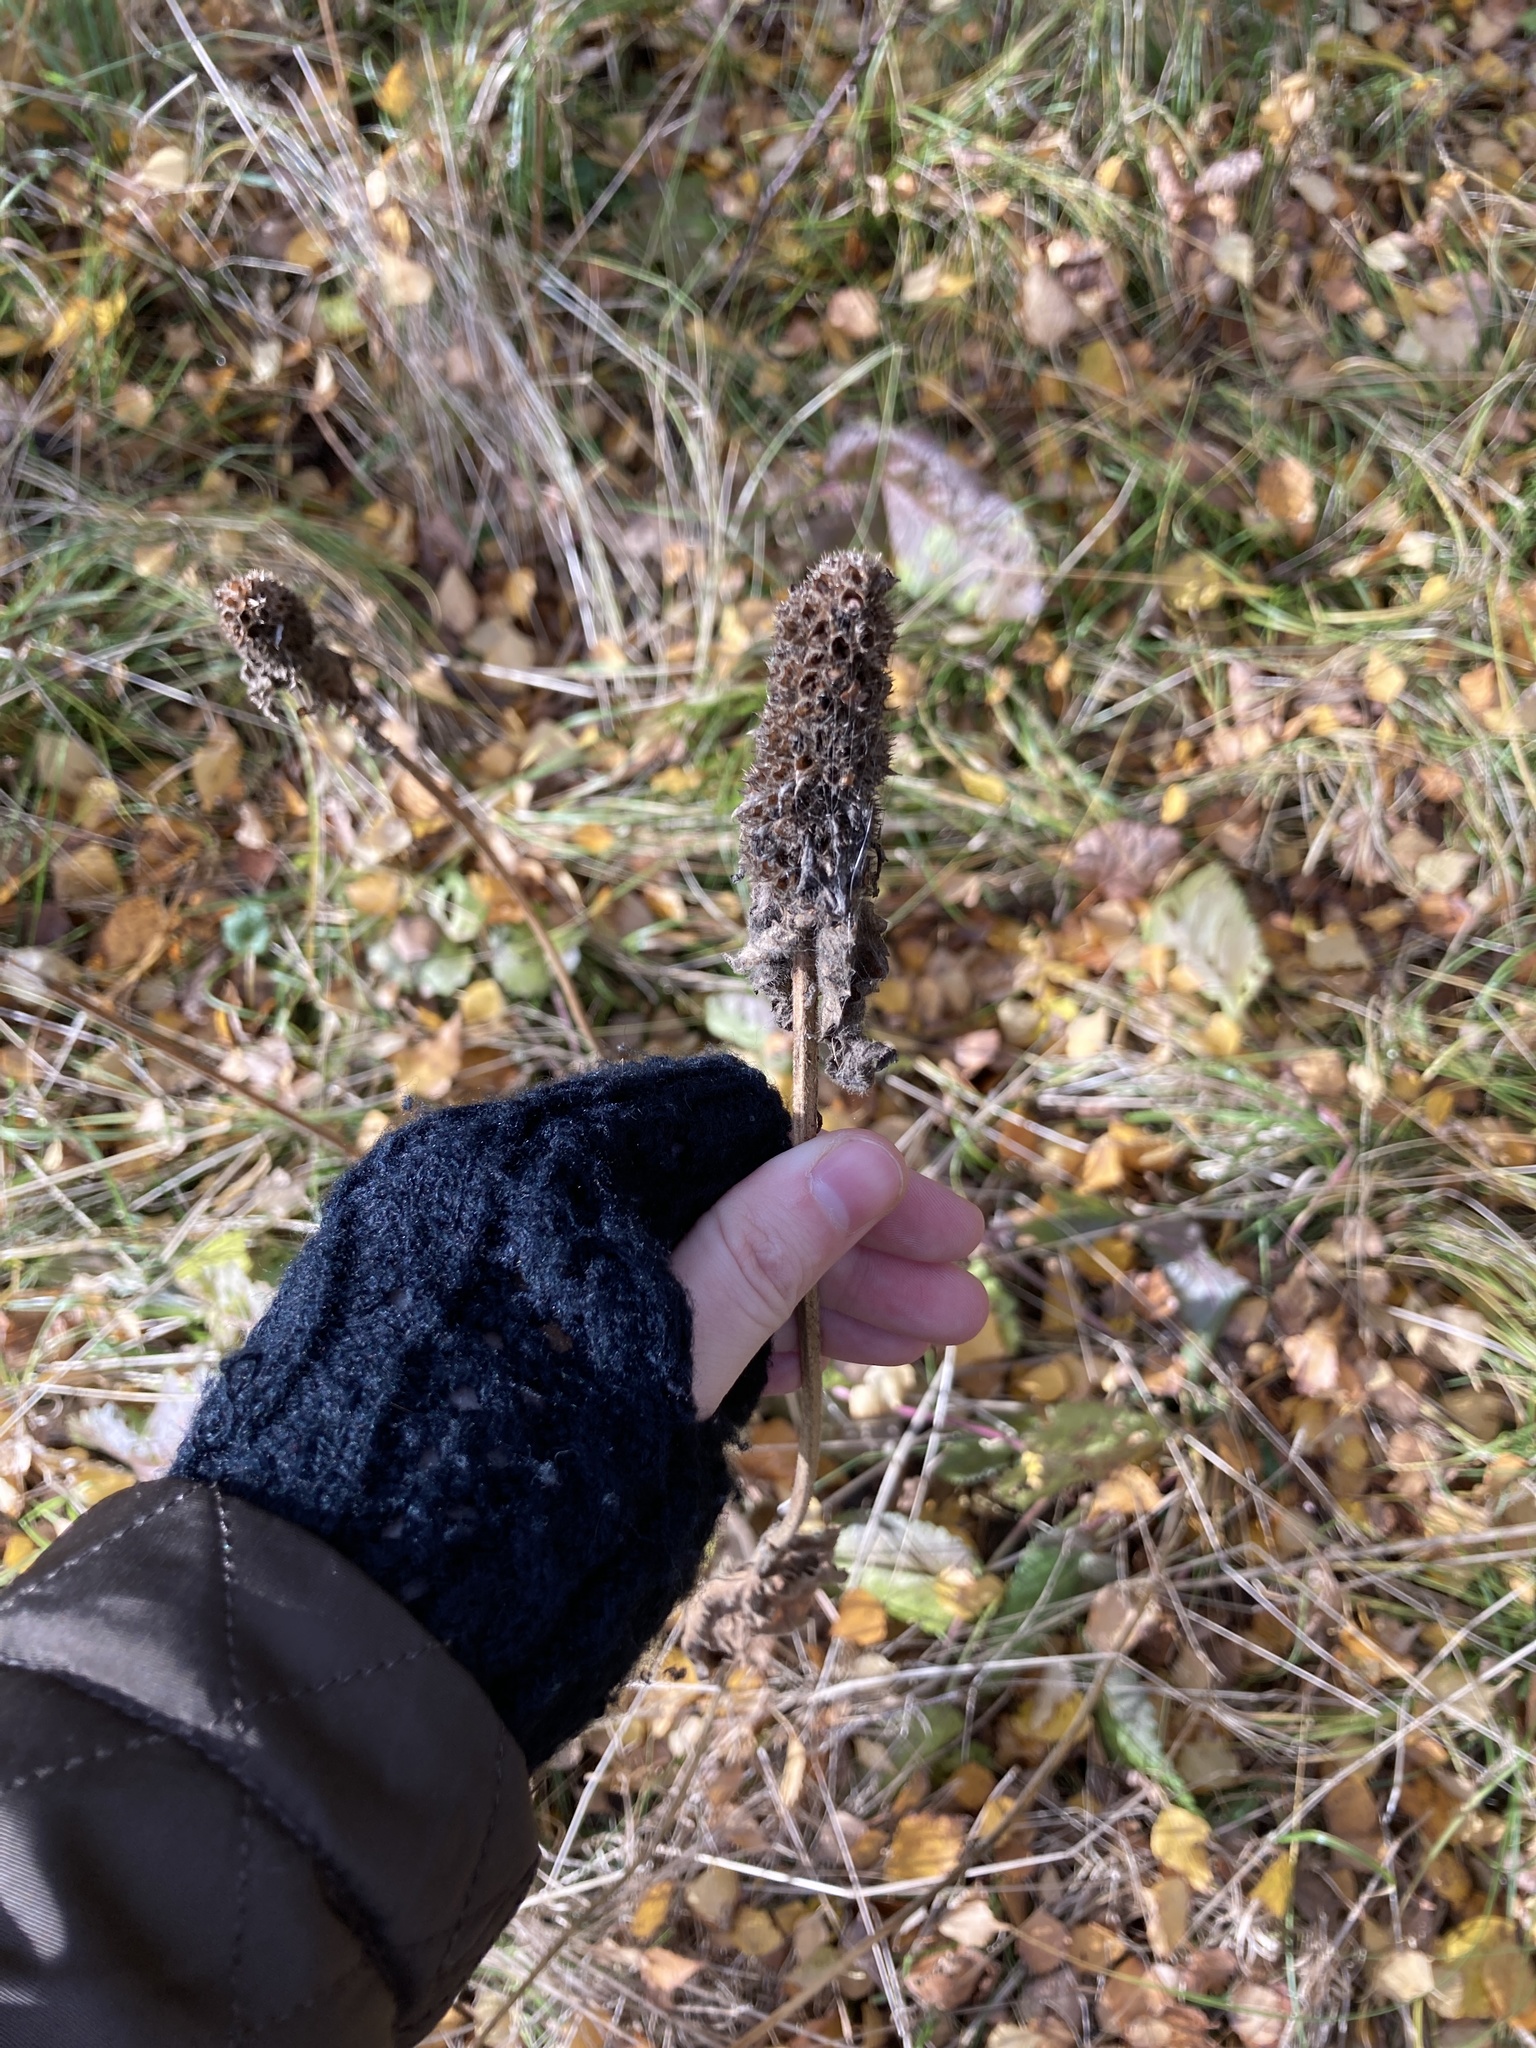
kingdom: Plantae
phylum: Tracheophyta
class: Magnoliopsida
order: Lamiales
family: Lamiaceae
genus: Betonica
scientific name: Betonica officinalis
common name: Bishop's-wort
